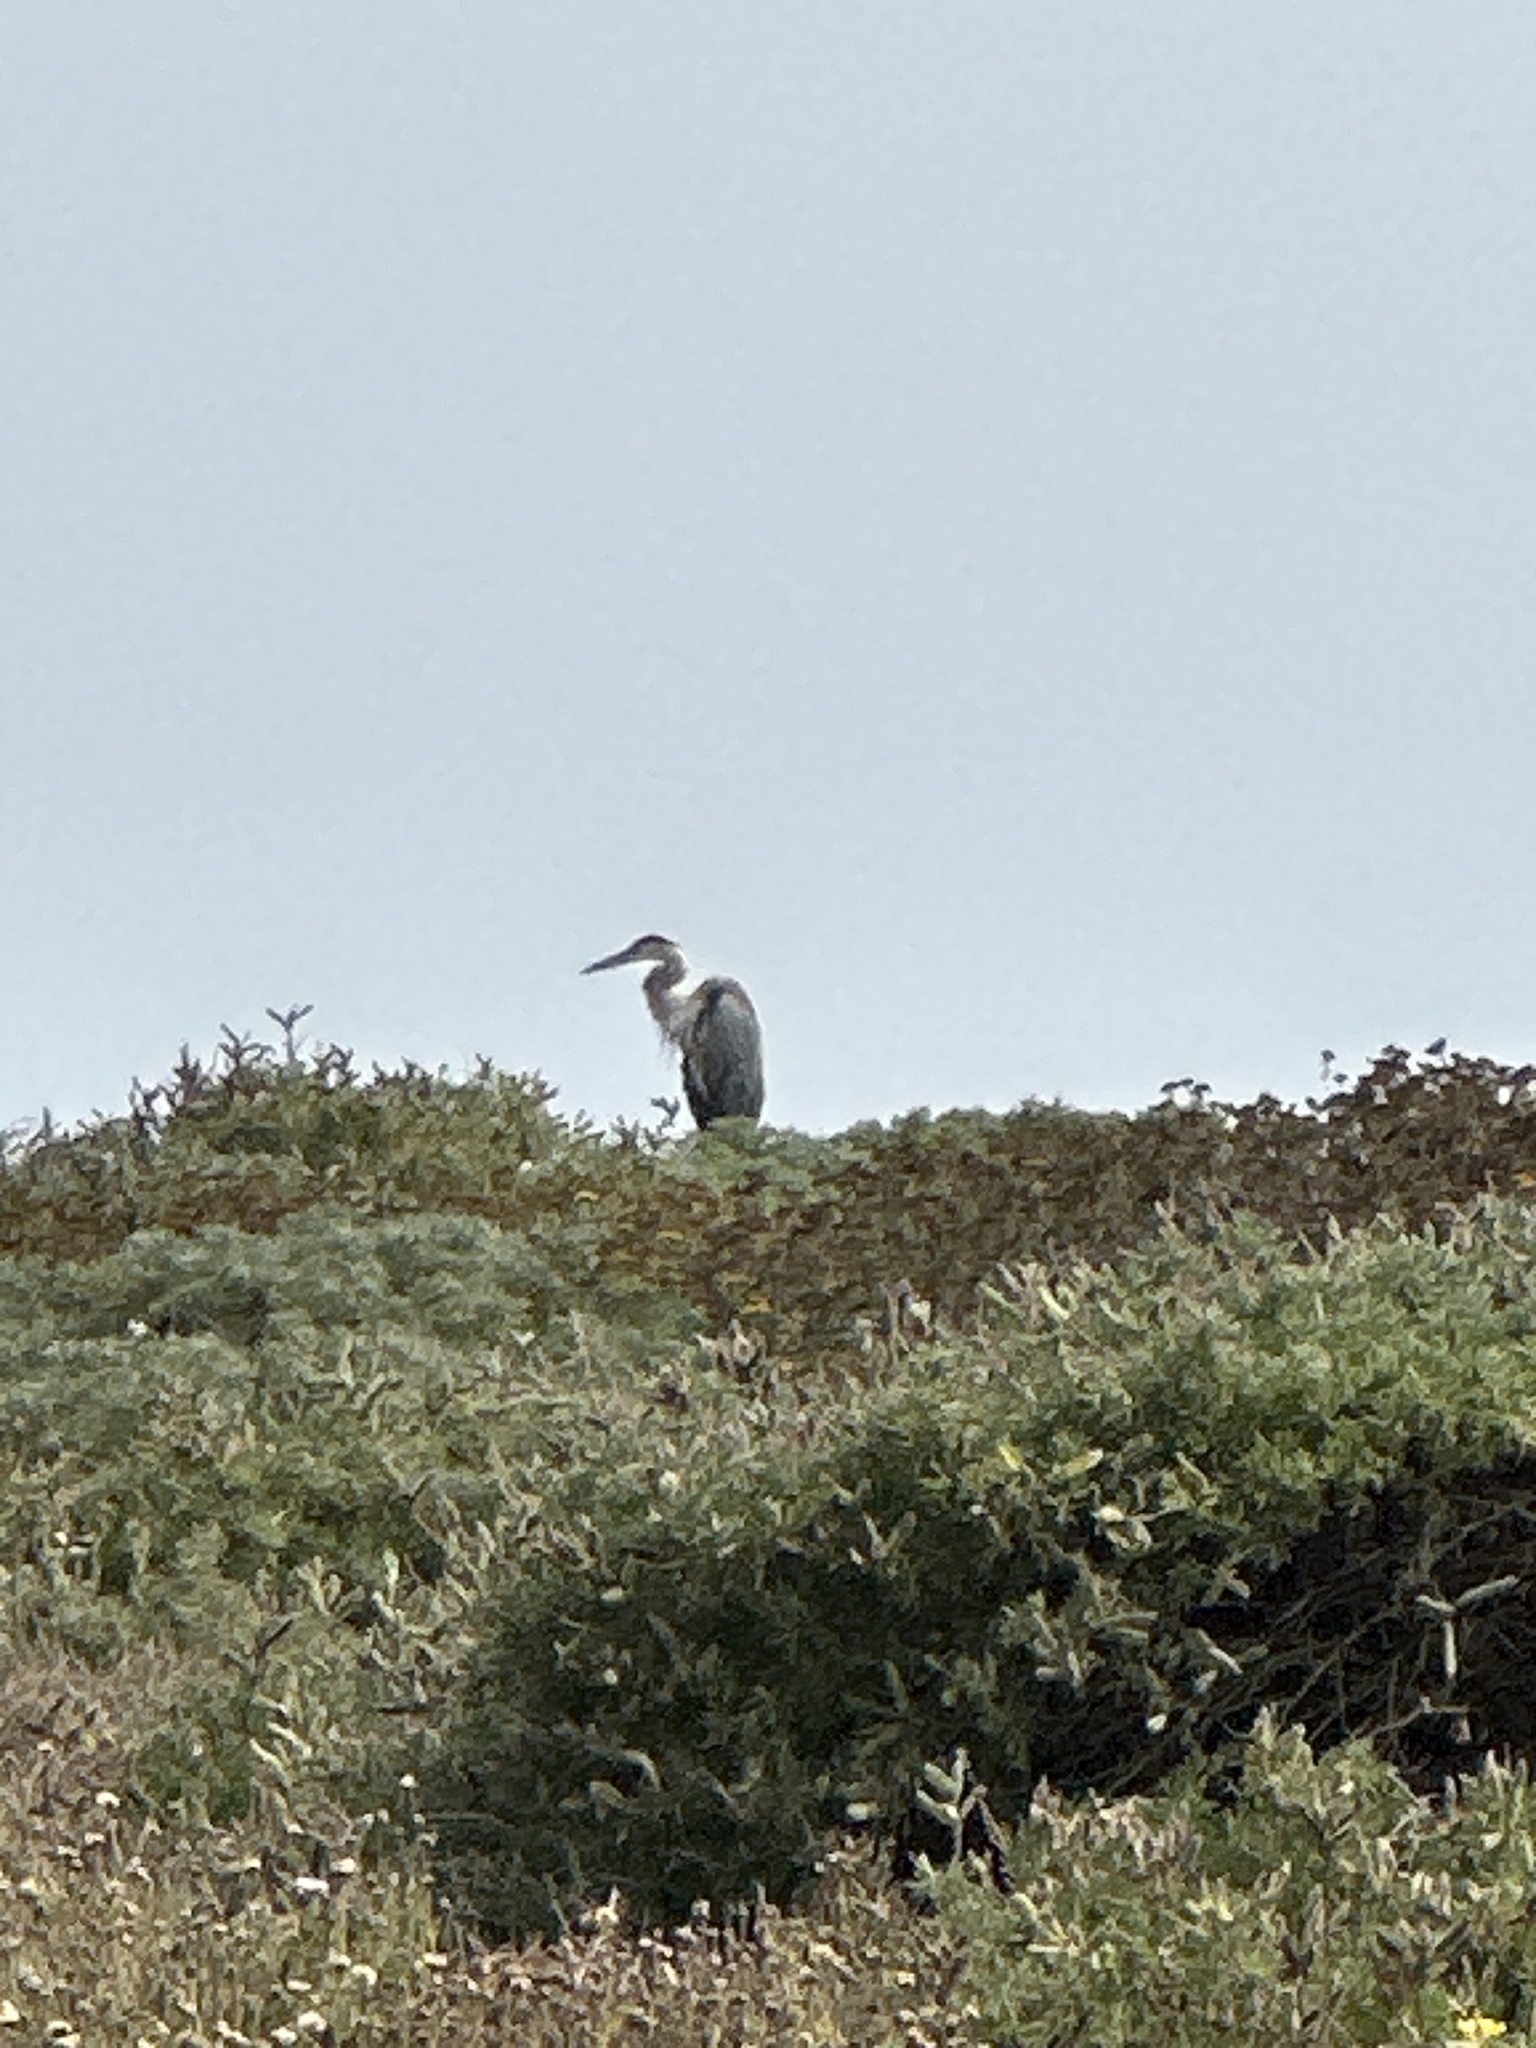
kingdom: Animalia
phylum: Chordata
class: Aves
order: Pelecaniformes
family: Ardeidae
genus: Ardea
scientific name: Ardea herodias
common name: Great blue heron
